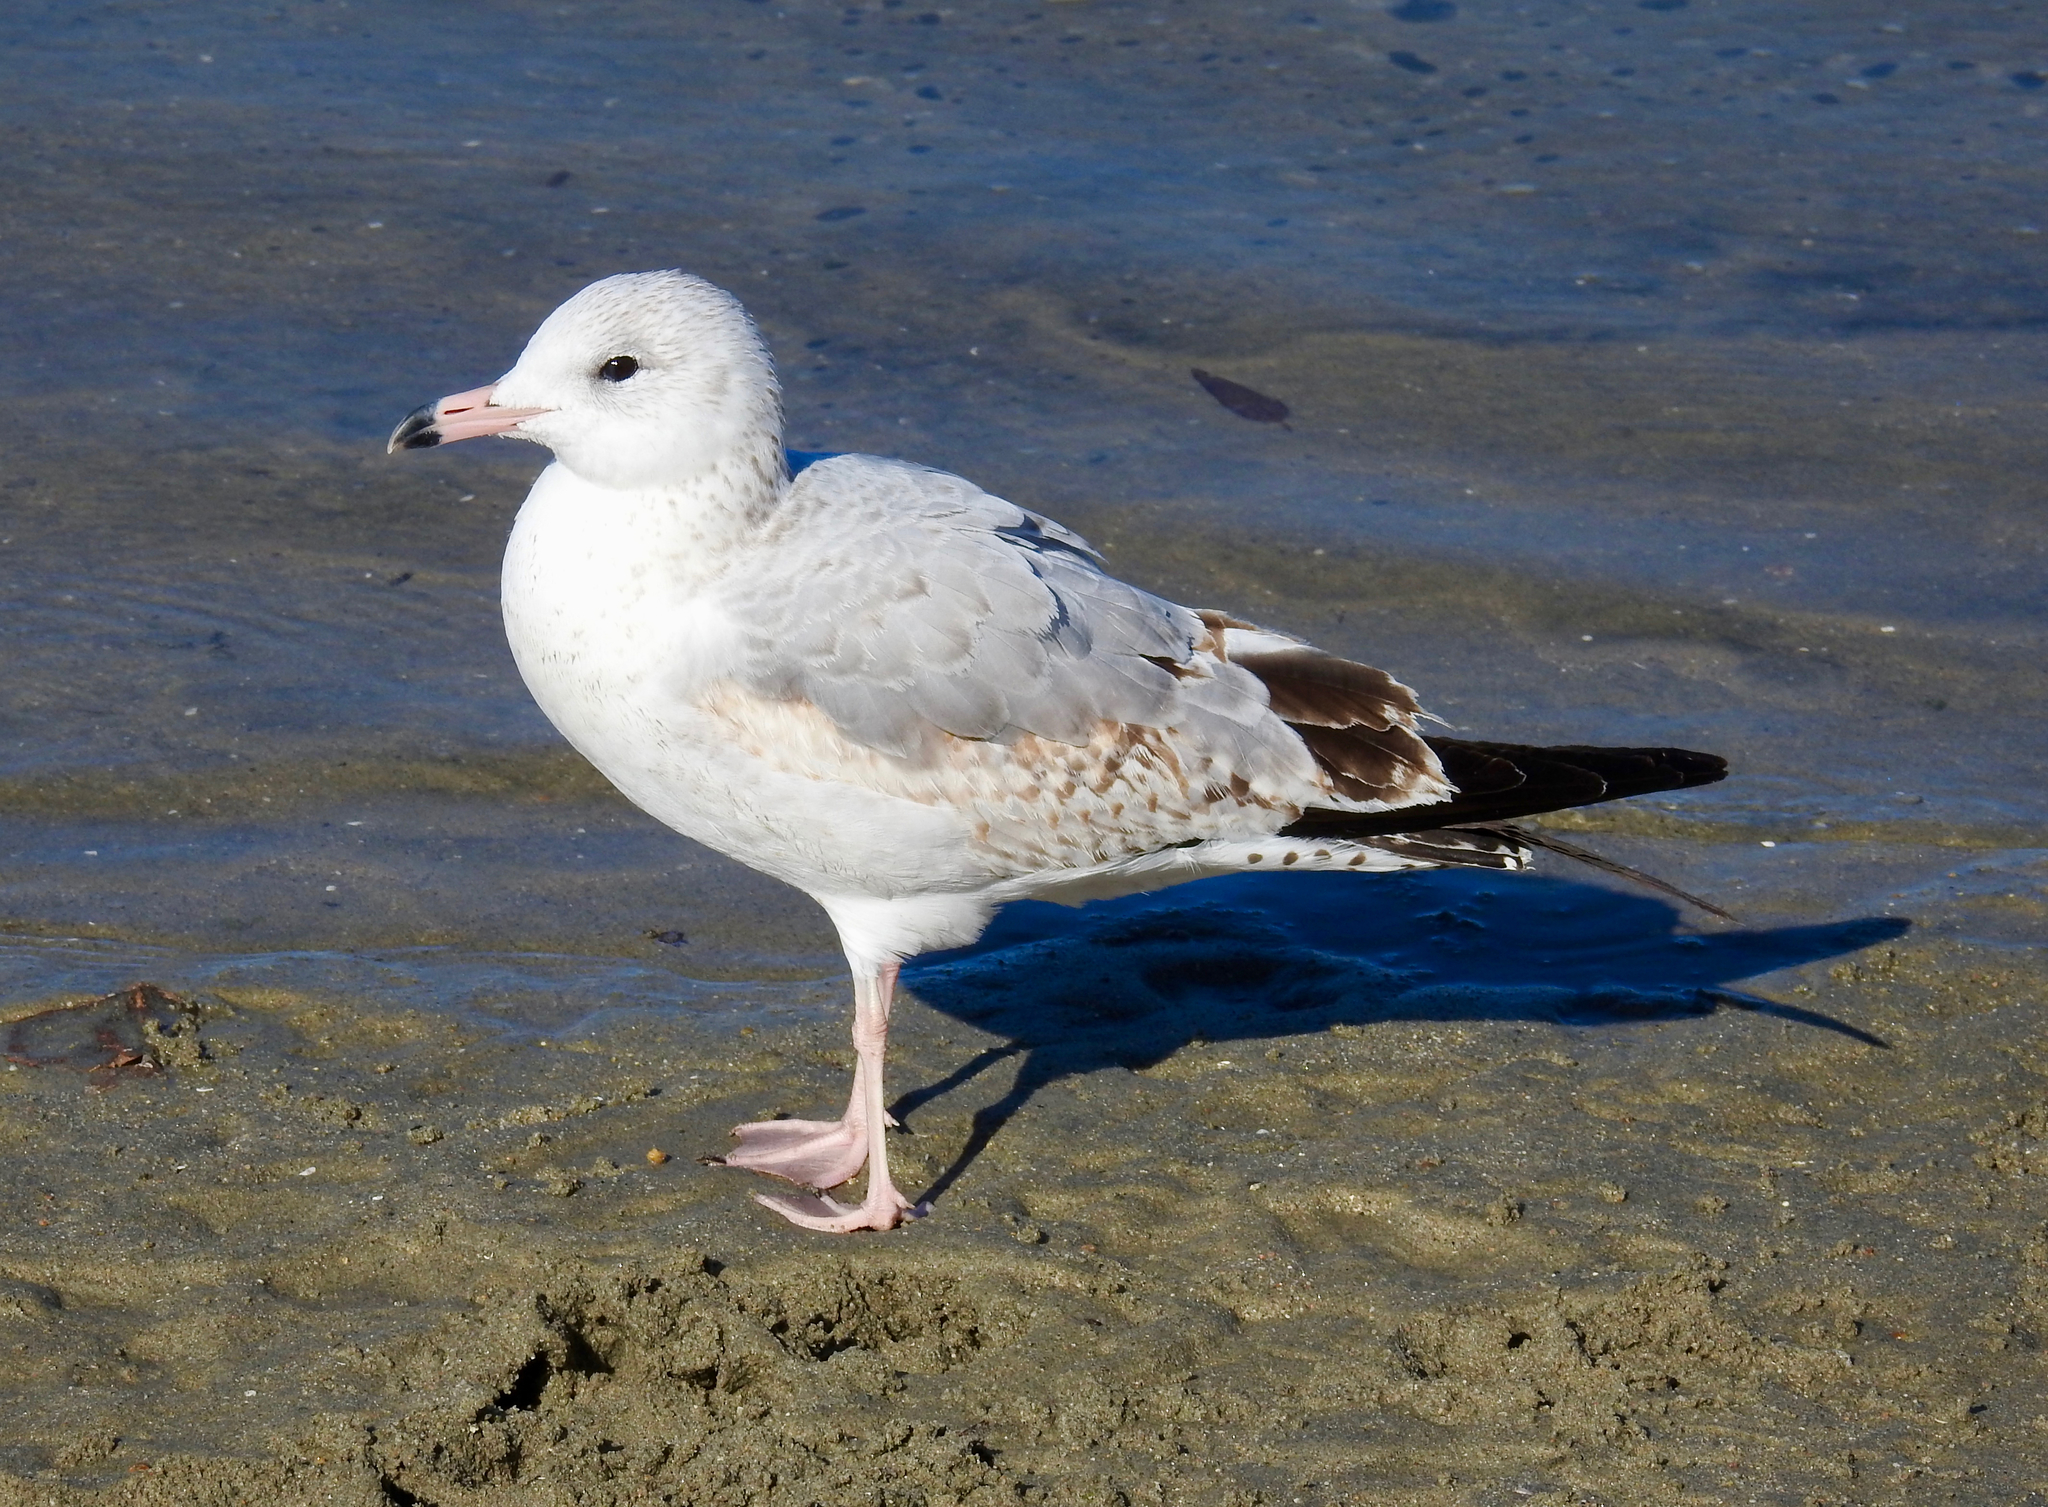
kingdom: Animalia
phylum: Chordata
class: Aves
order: Charadriiformes
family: Laridae
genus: Larus
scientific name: Larus delawarensis
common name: Ring-billed gull
